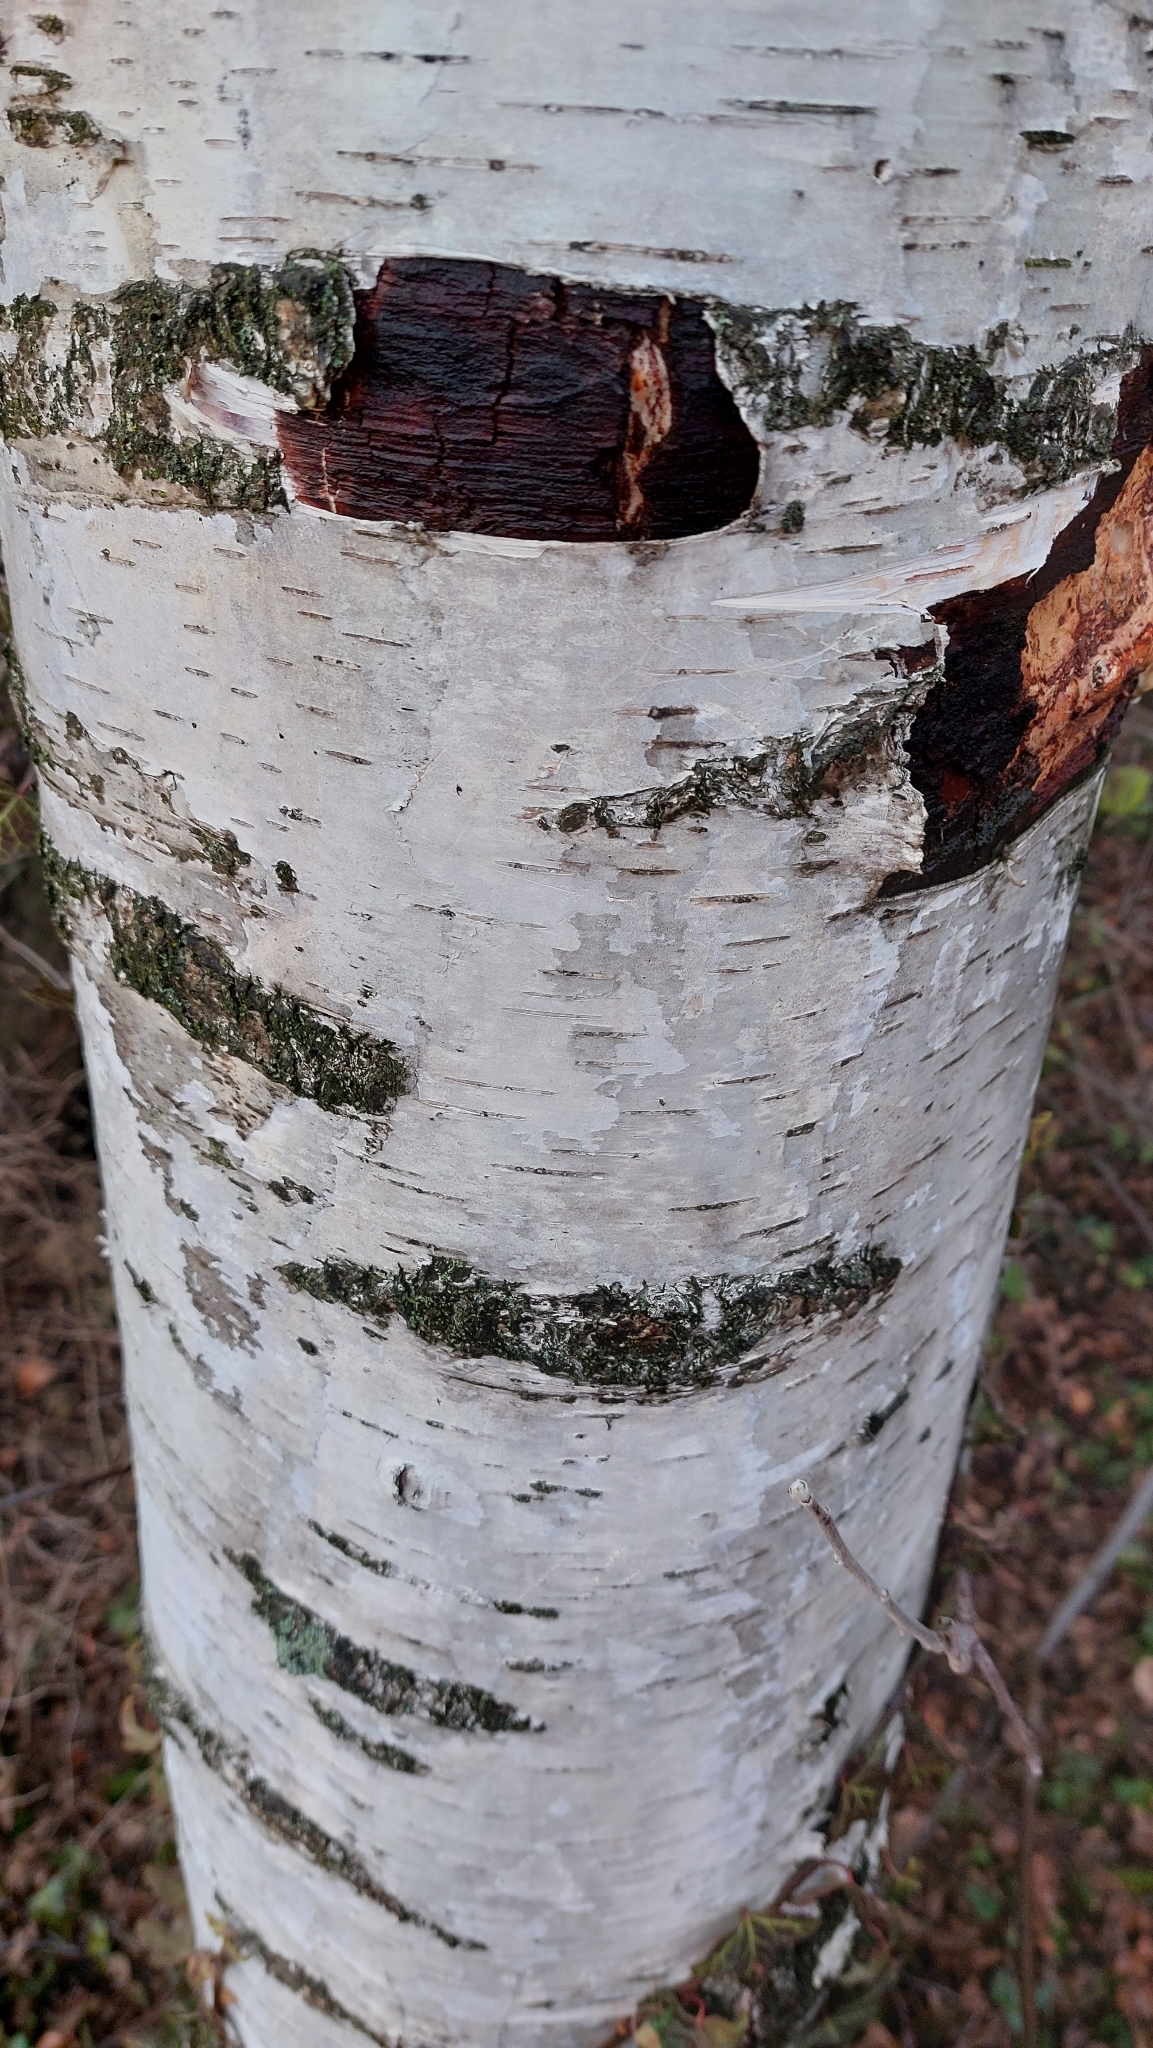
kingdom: Plantae
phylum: Tracheophyta
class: Magnoliopsida
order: Fagales
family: Betulaceae
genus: Betula
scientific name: Betula pendula
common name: Silver birch
